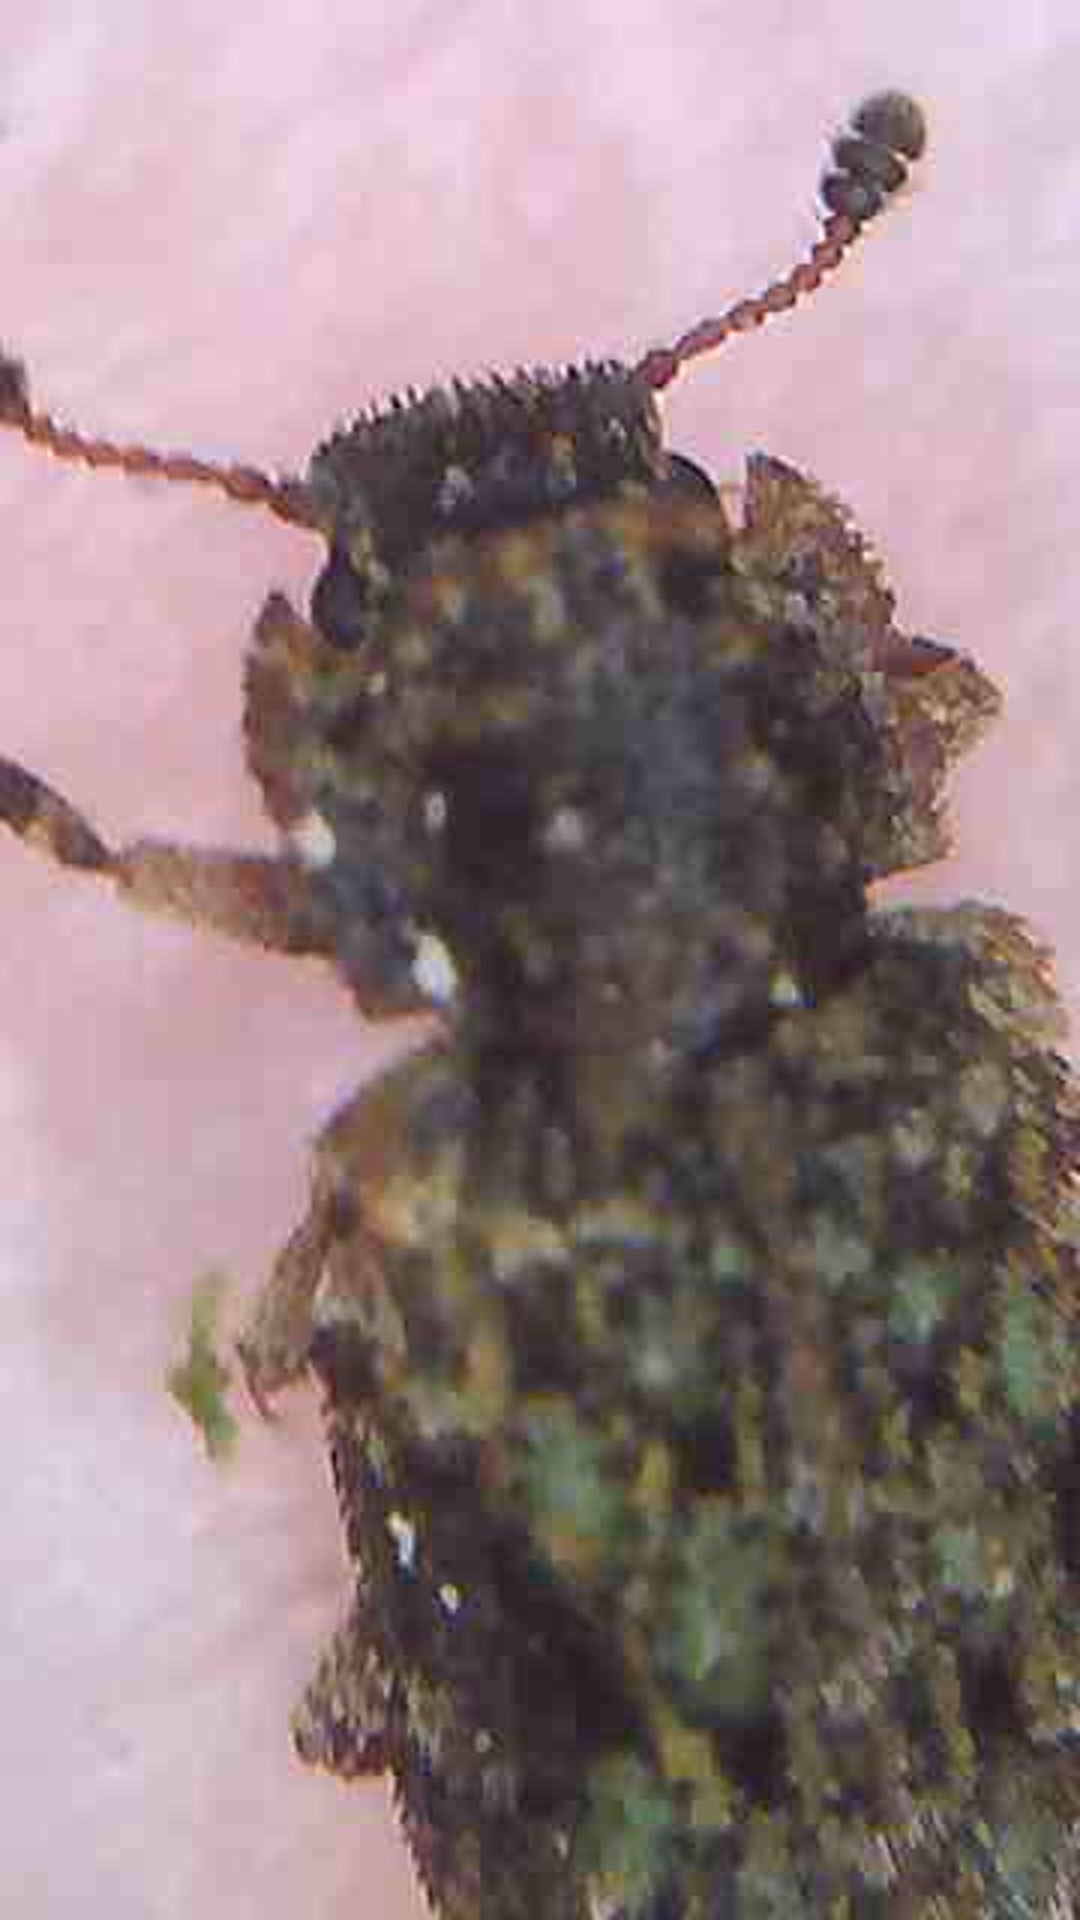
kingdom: Animalia
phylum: Arthropoda
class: Insecta
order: Coleoptera
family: Zopheridae
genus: Pristoderus
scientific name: Pristoderus
